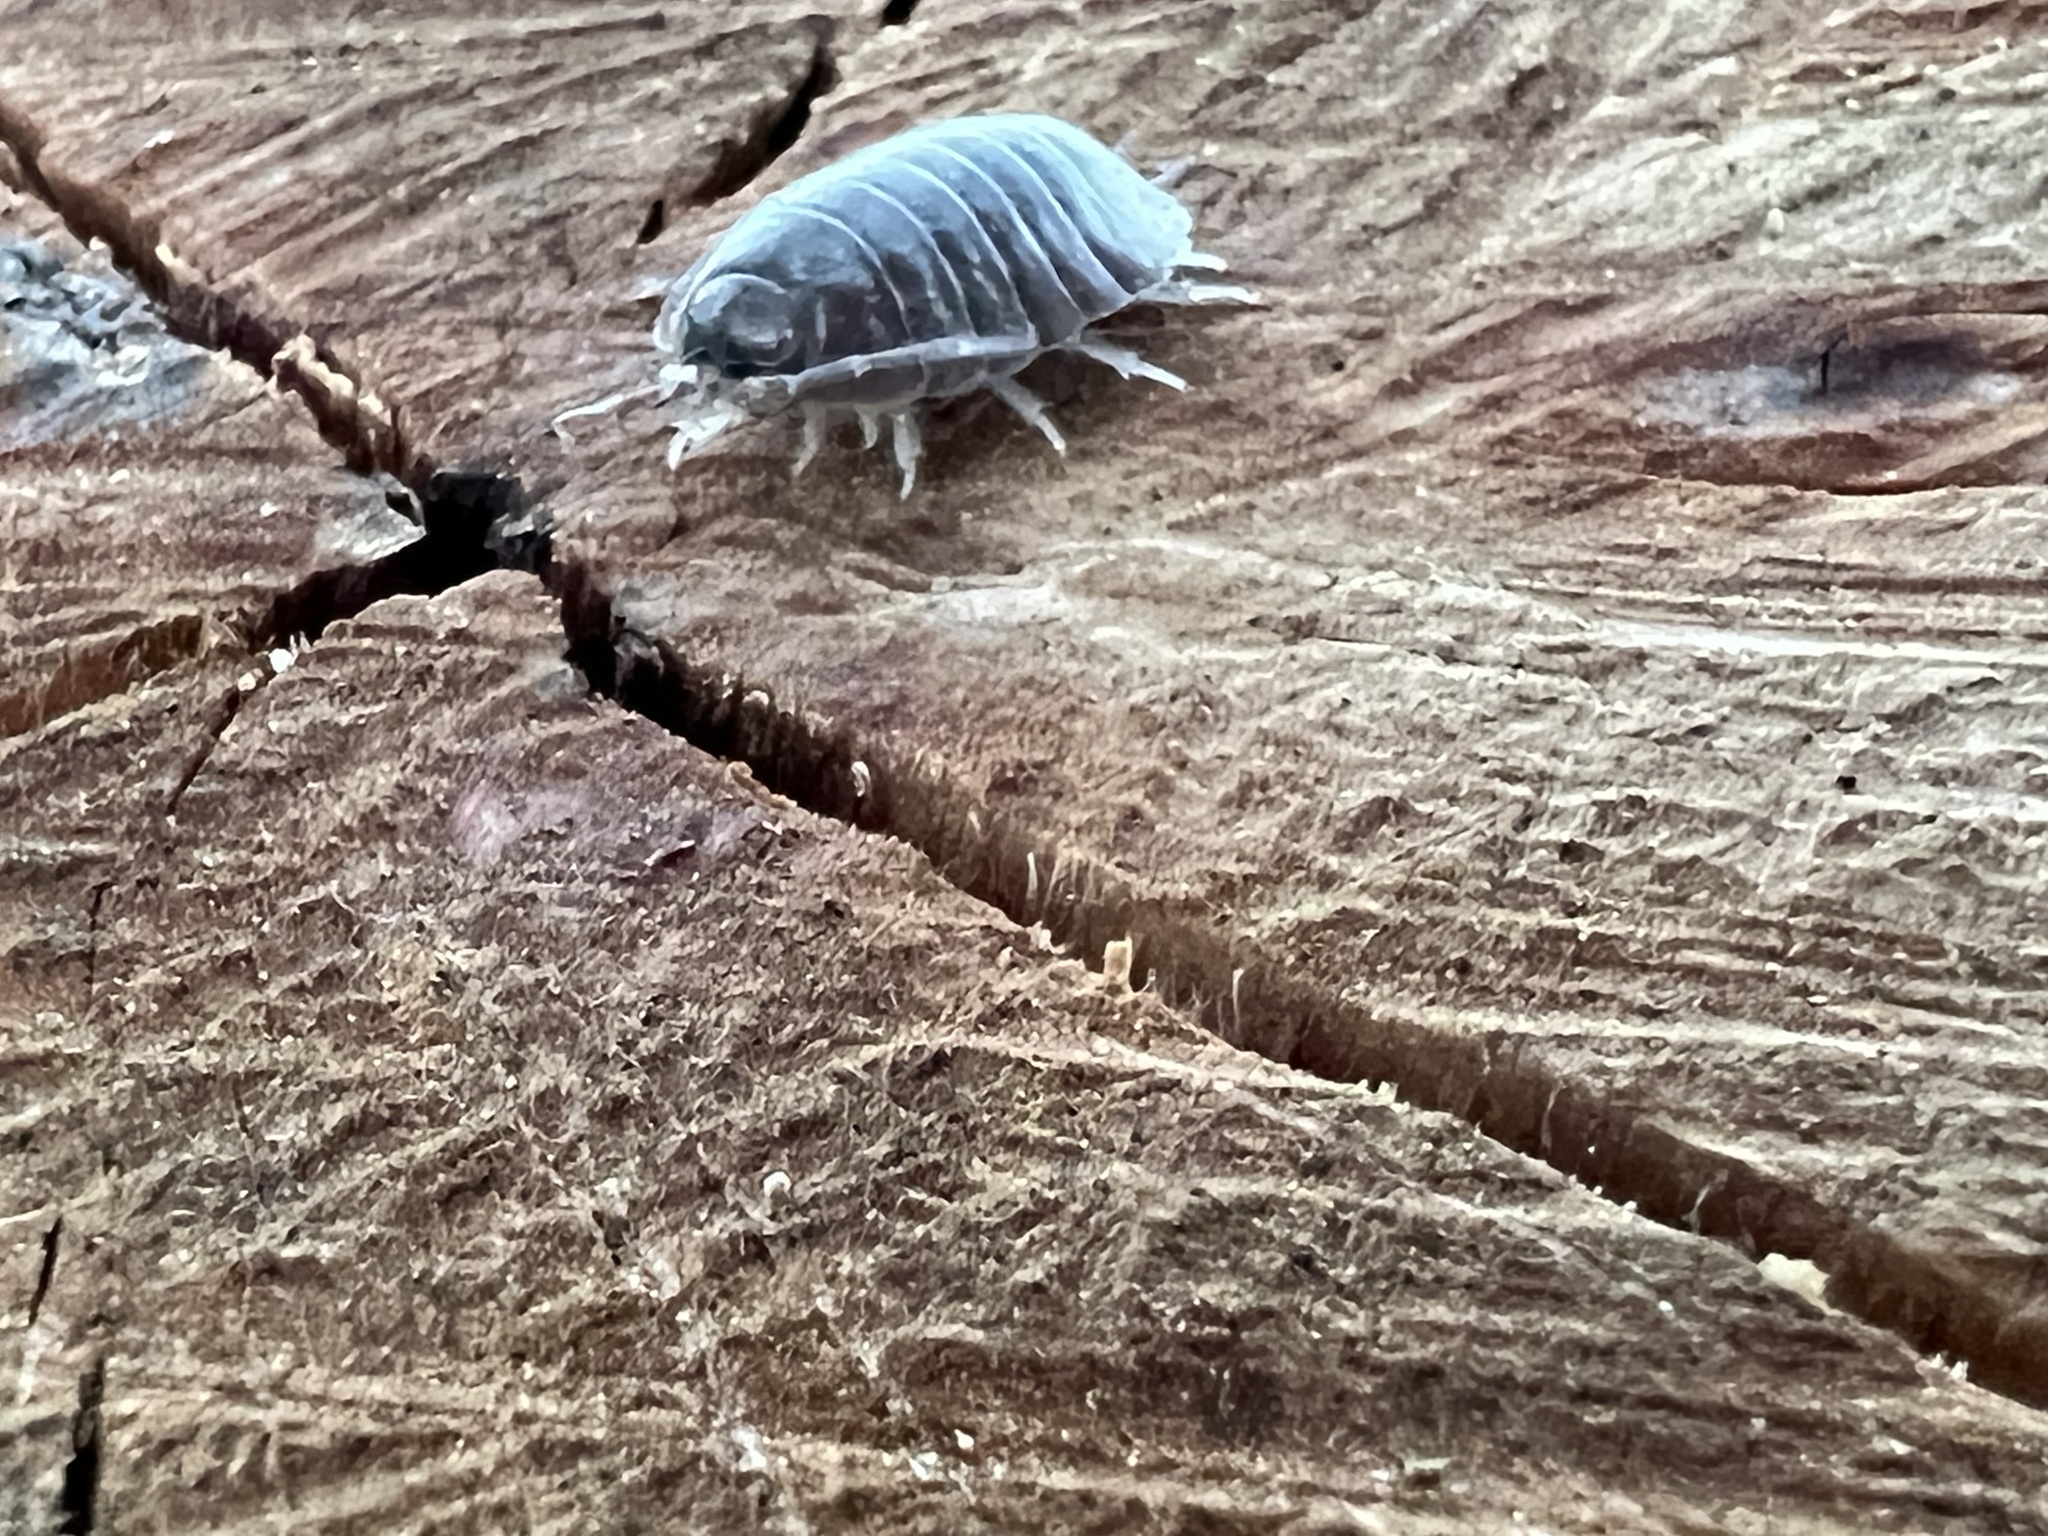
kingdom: Animalia
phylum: Arthropoda
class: Malacostraca
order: Isopoda
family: Porcellionidae
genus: Porcellio
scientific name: Porcellio laevis
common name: Swift woodlouse
